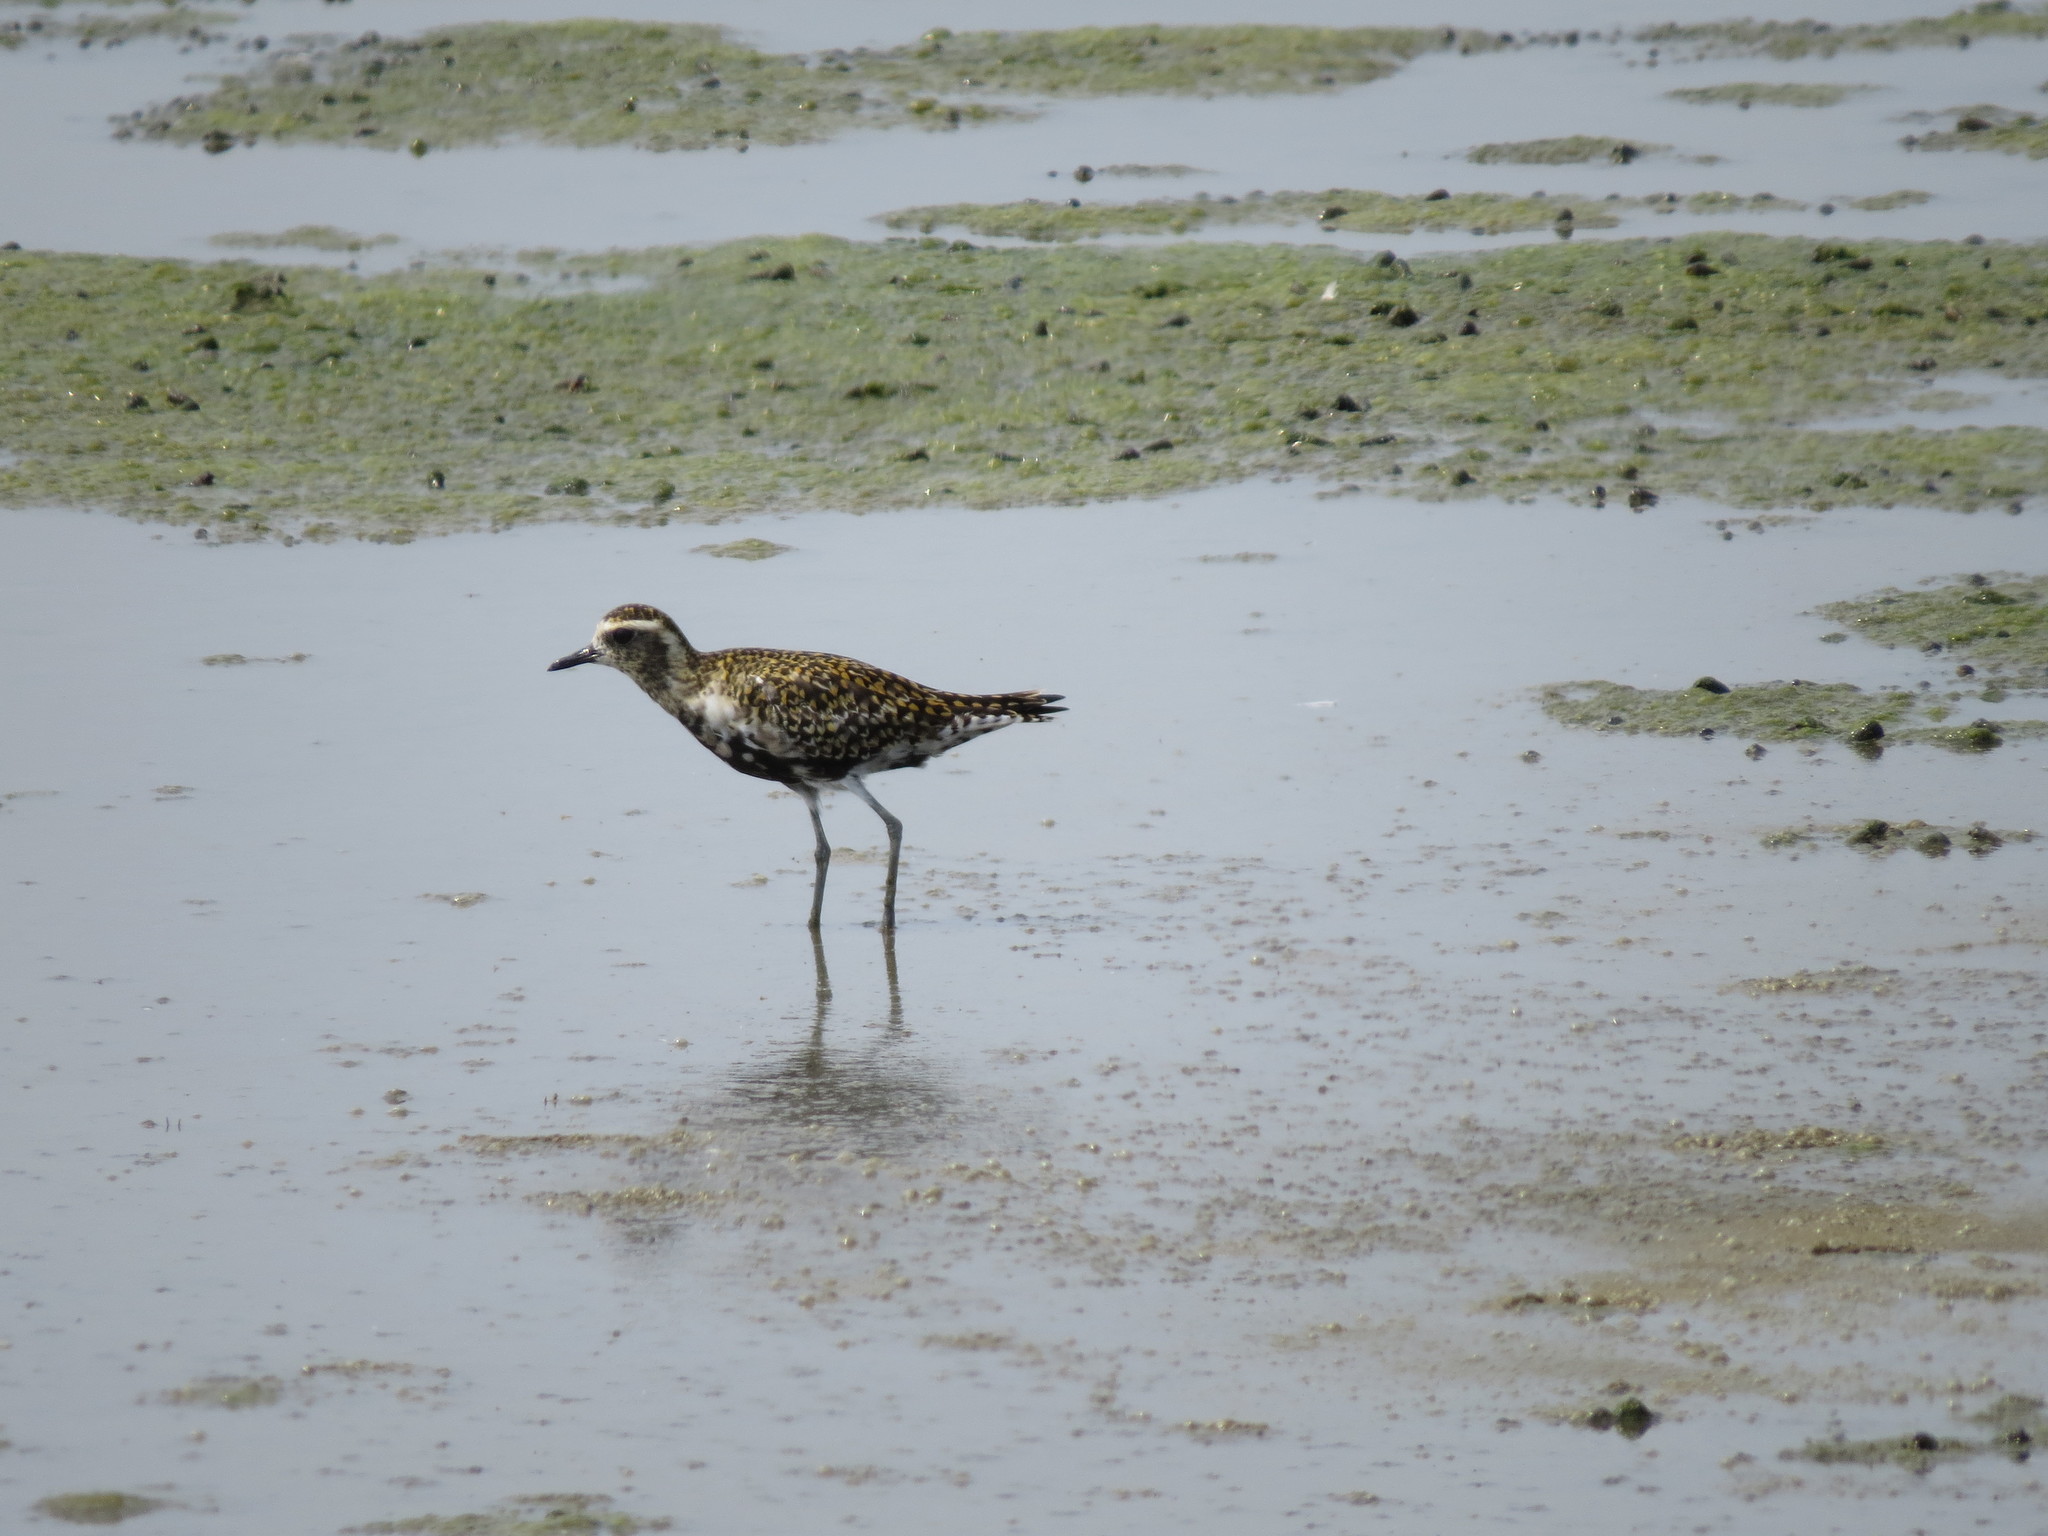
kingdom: Animalia
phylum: Chordata
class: Aves
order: Charadriiformes
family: Charadriidae
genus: Pluvialis
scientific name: Pluvialis fulva
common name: Pacific golden plover
